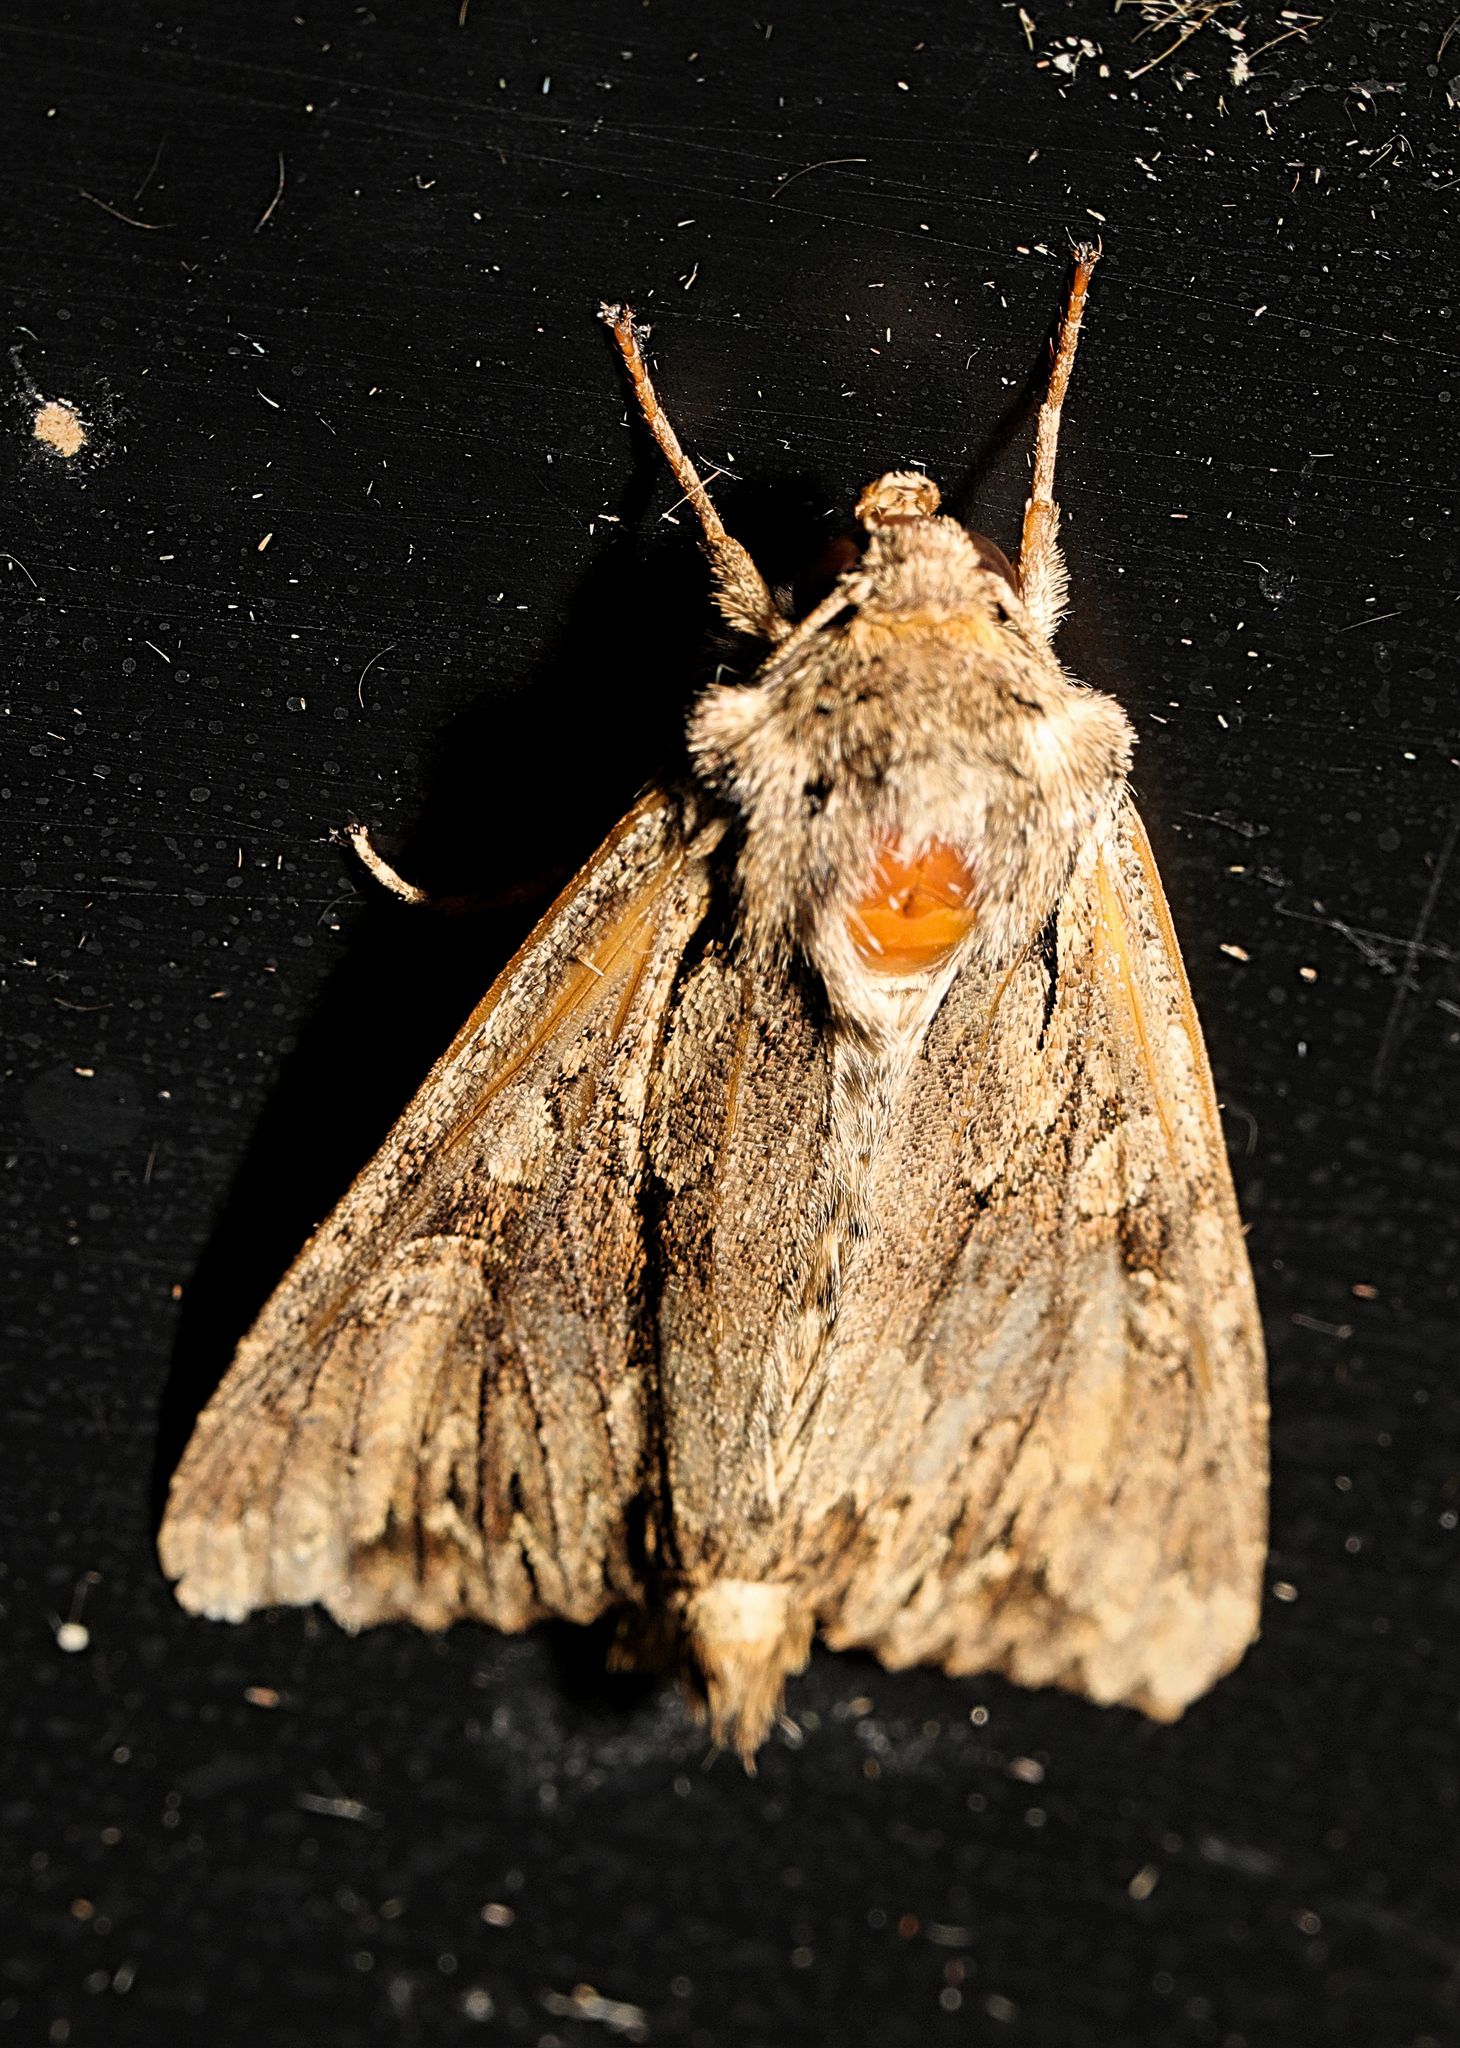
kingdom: Animalia
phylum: Arthropoda
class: Insecta
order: Lepidoptera
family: Noctuidae
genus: Apamea
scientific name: Apamea monoglypha
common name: Dark arches
